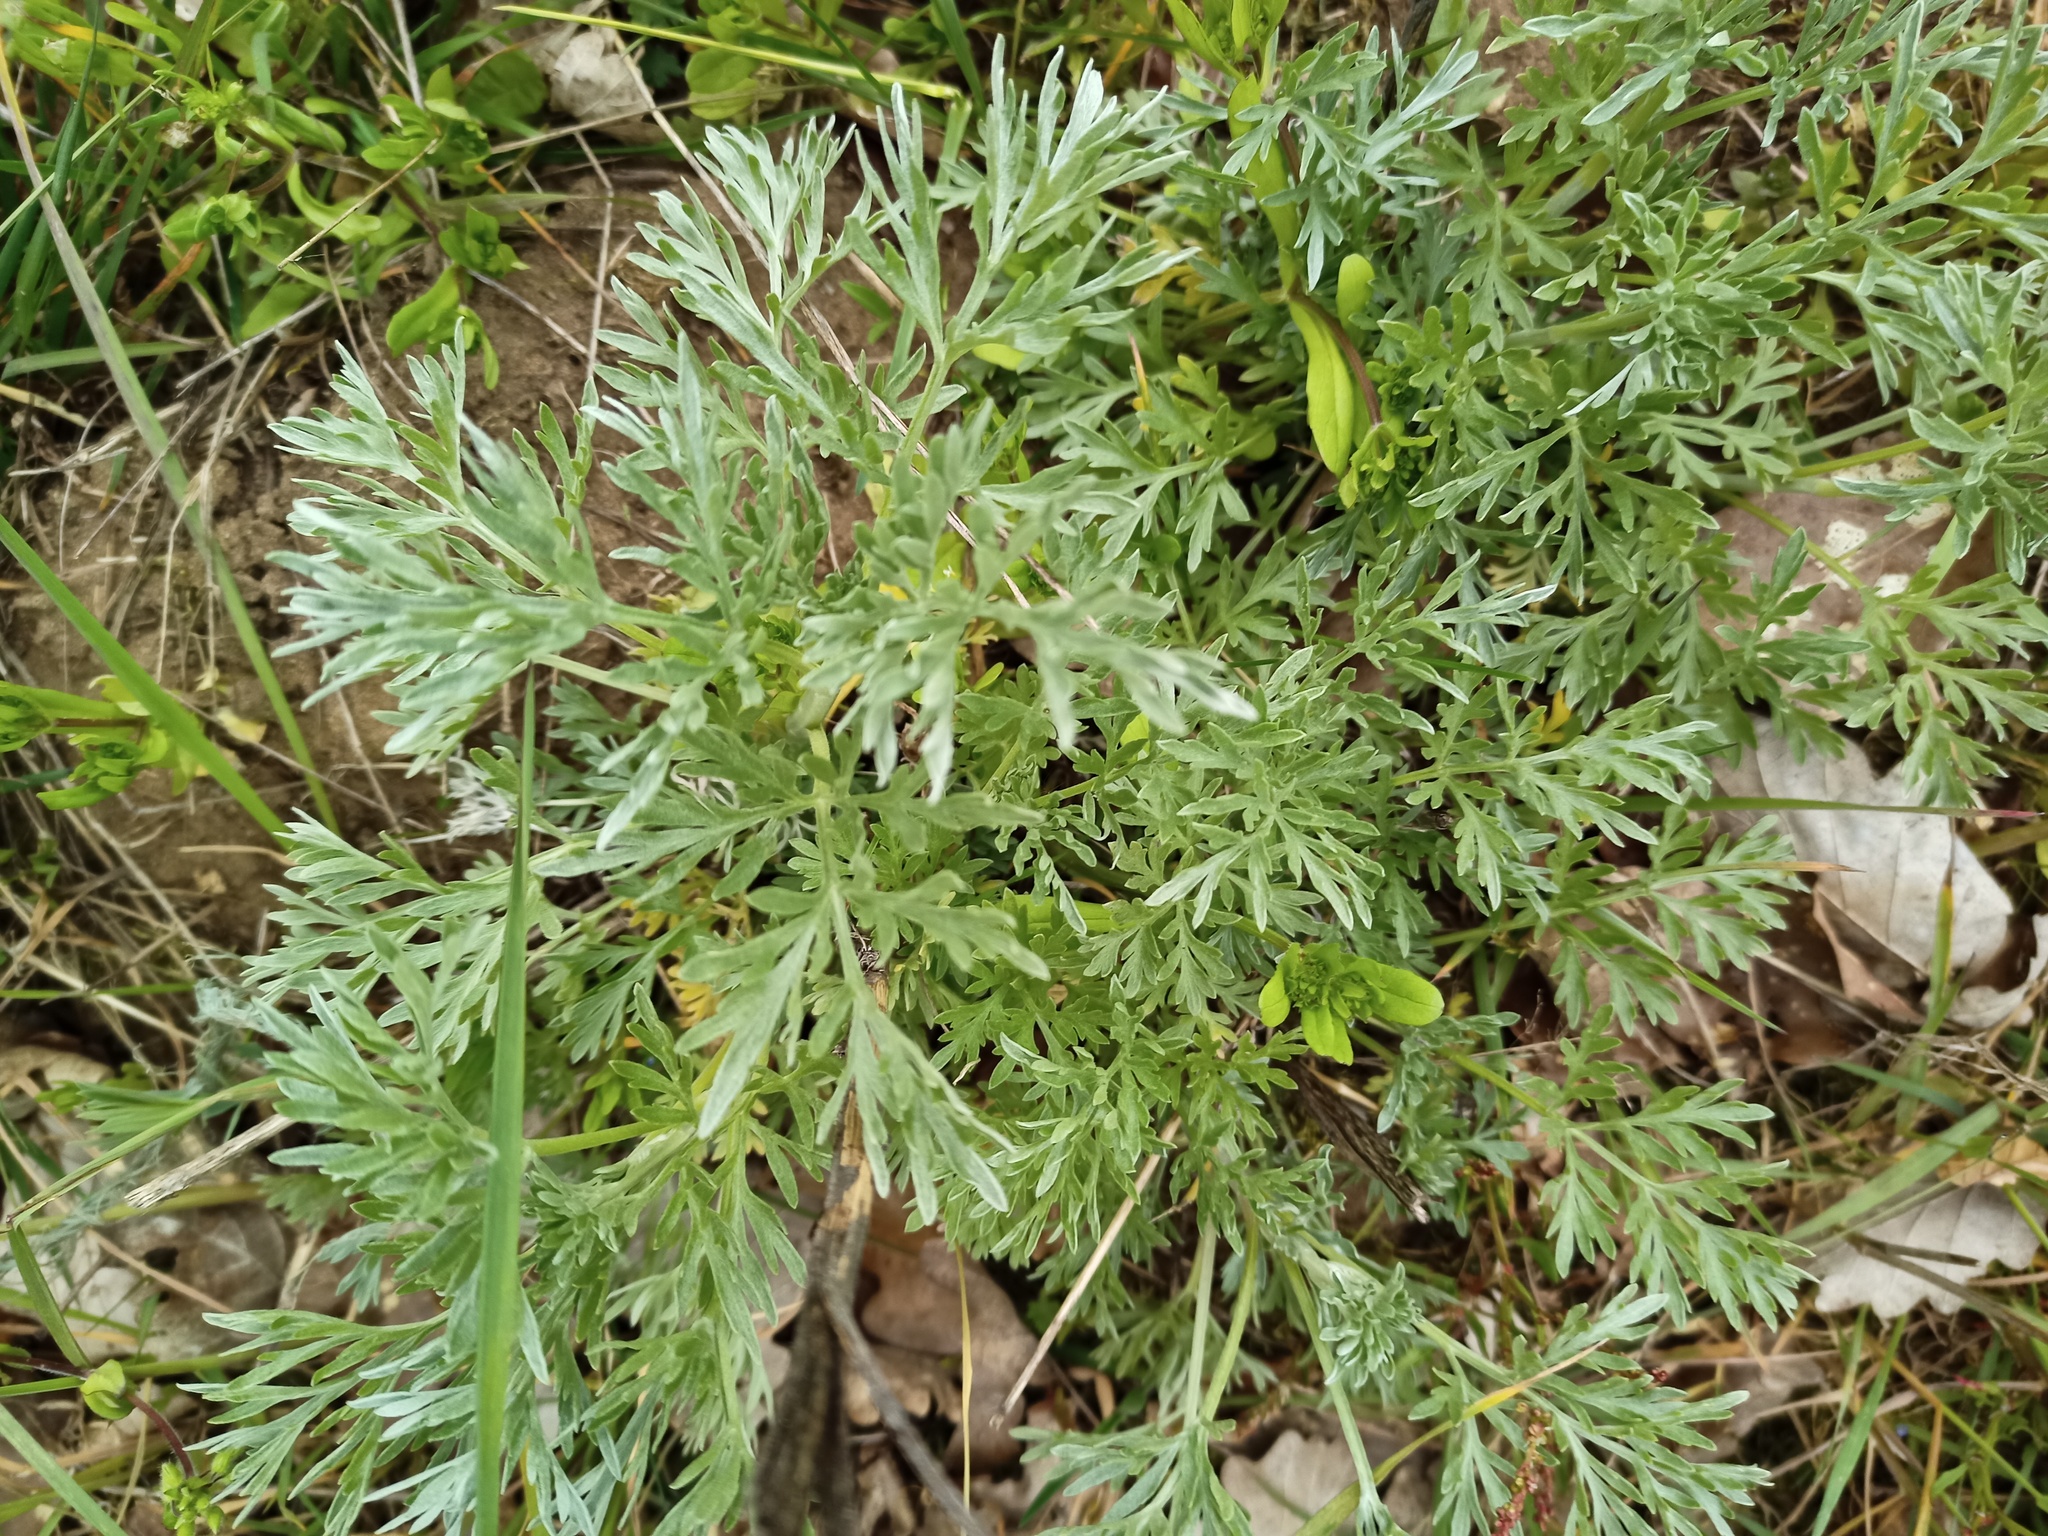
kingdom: Plantae
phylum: Tracheophyta
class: Magnoliopsida
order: Asterales
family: Asteraceae
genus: Artemisia
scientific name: Artemisia absinthium
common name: Wormwood
